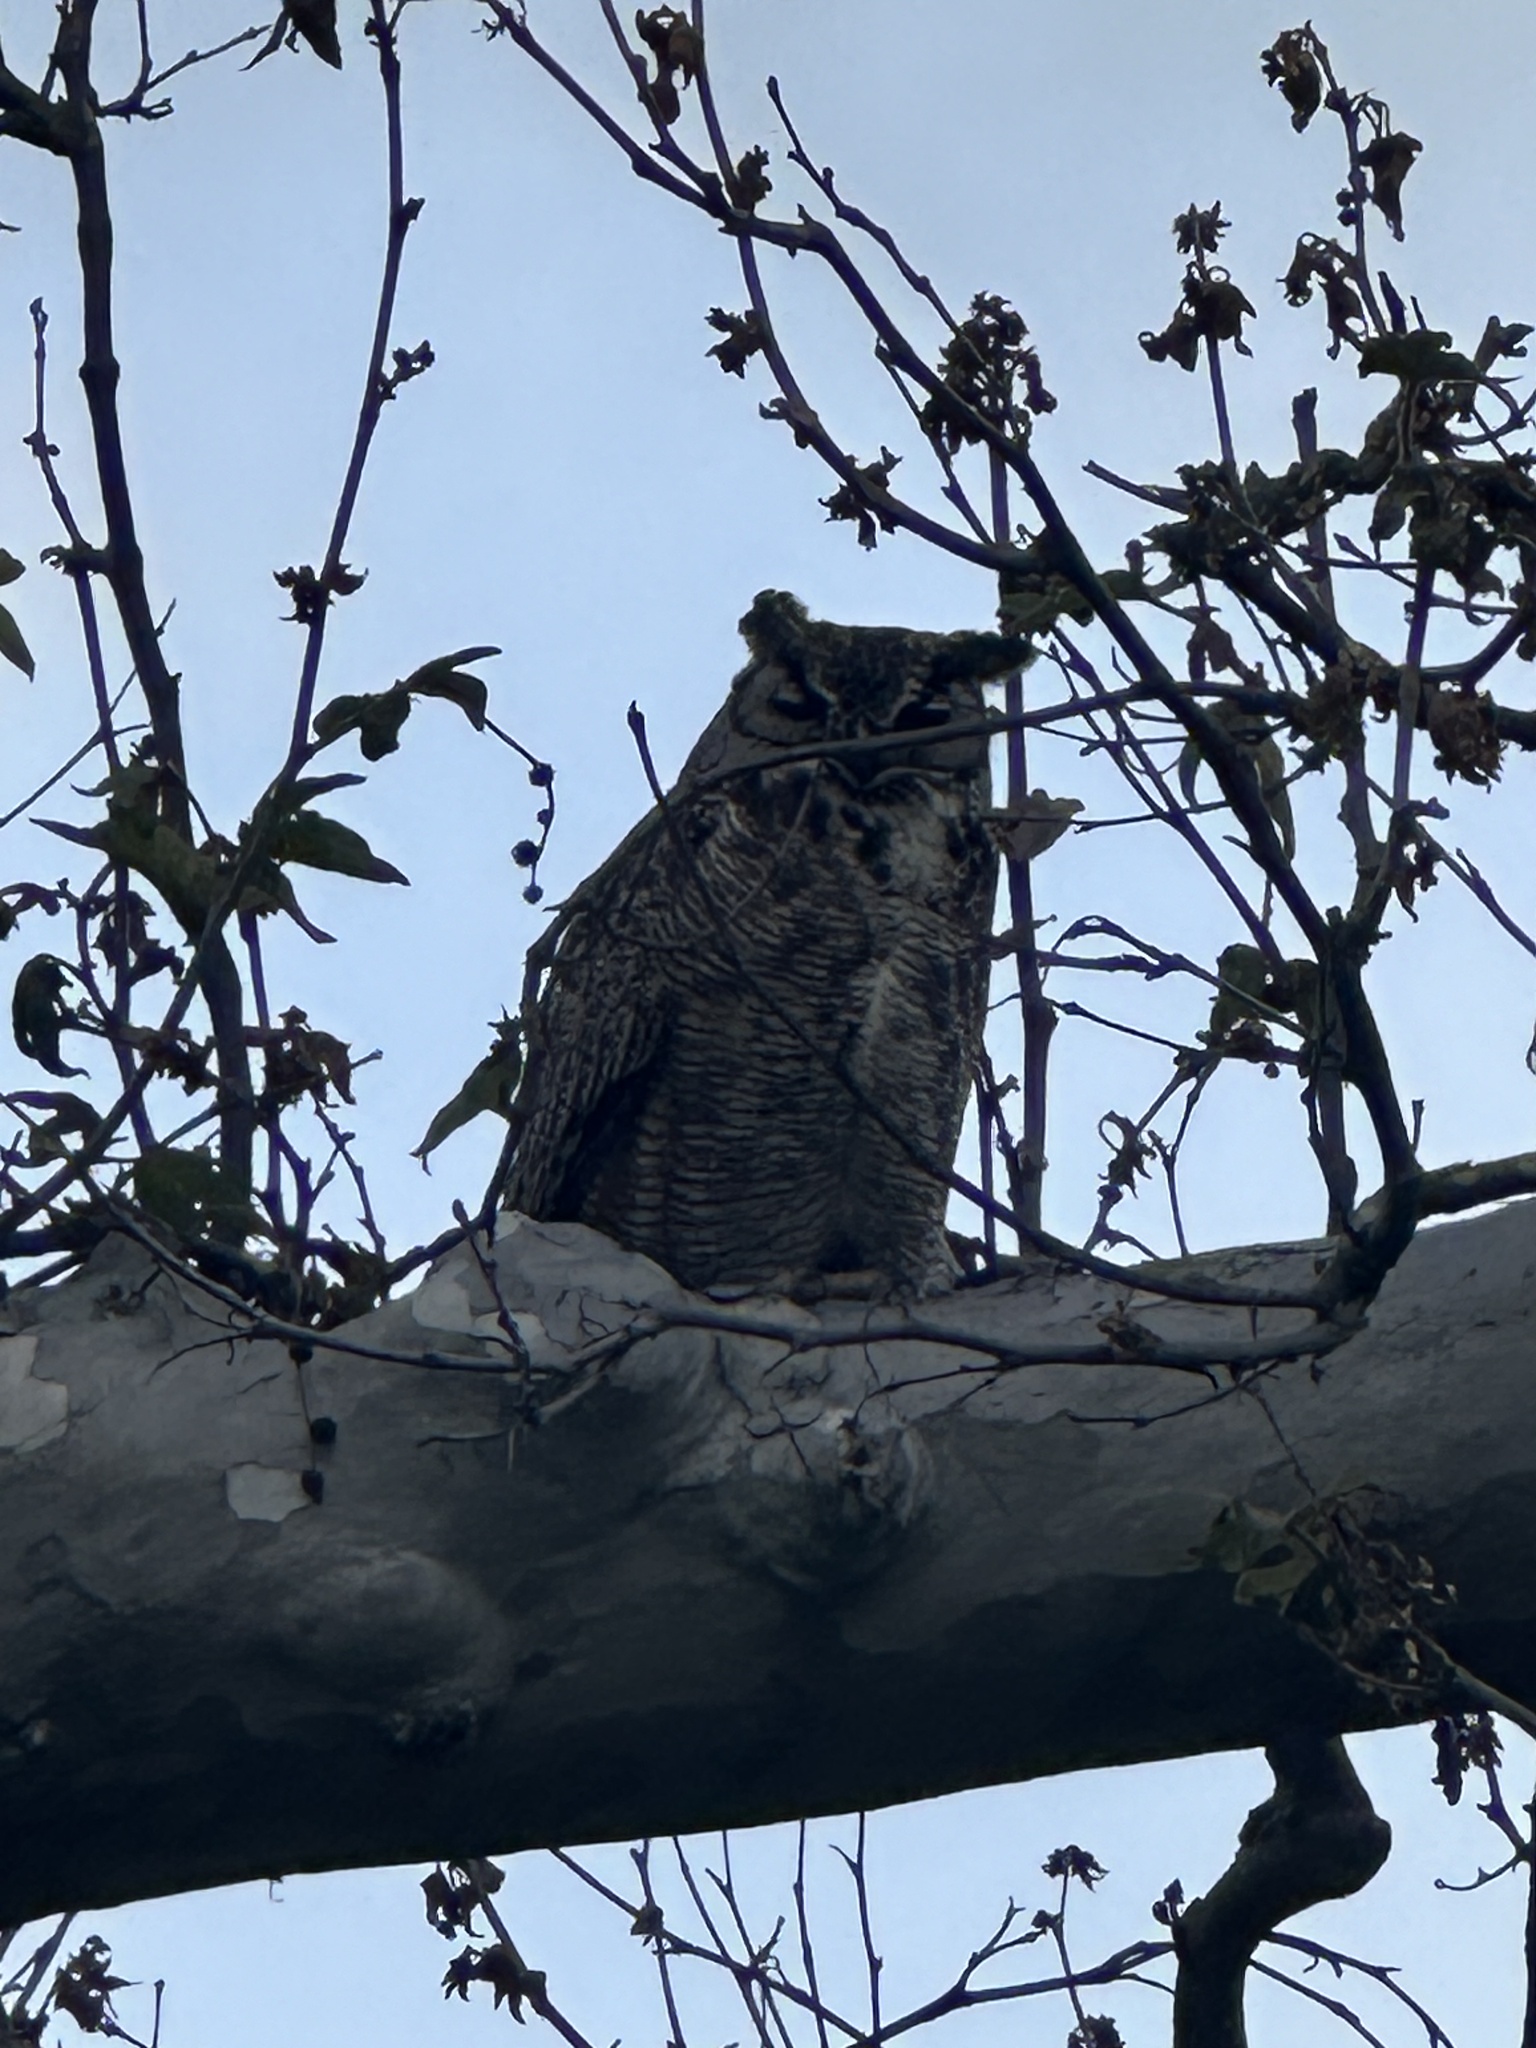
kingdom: Animalia
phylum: Chordata
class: Aves
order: Strigiformes
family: Strigidae
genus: Bubo
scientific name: Bubo virginianus
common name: Great horned owl
